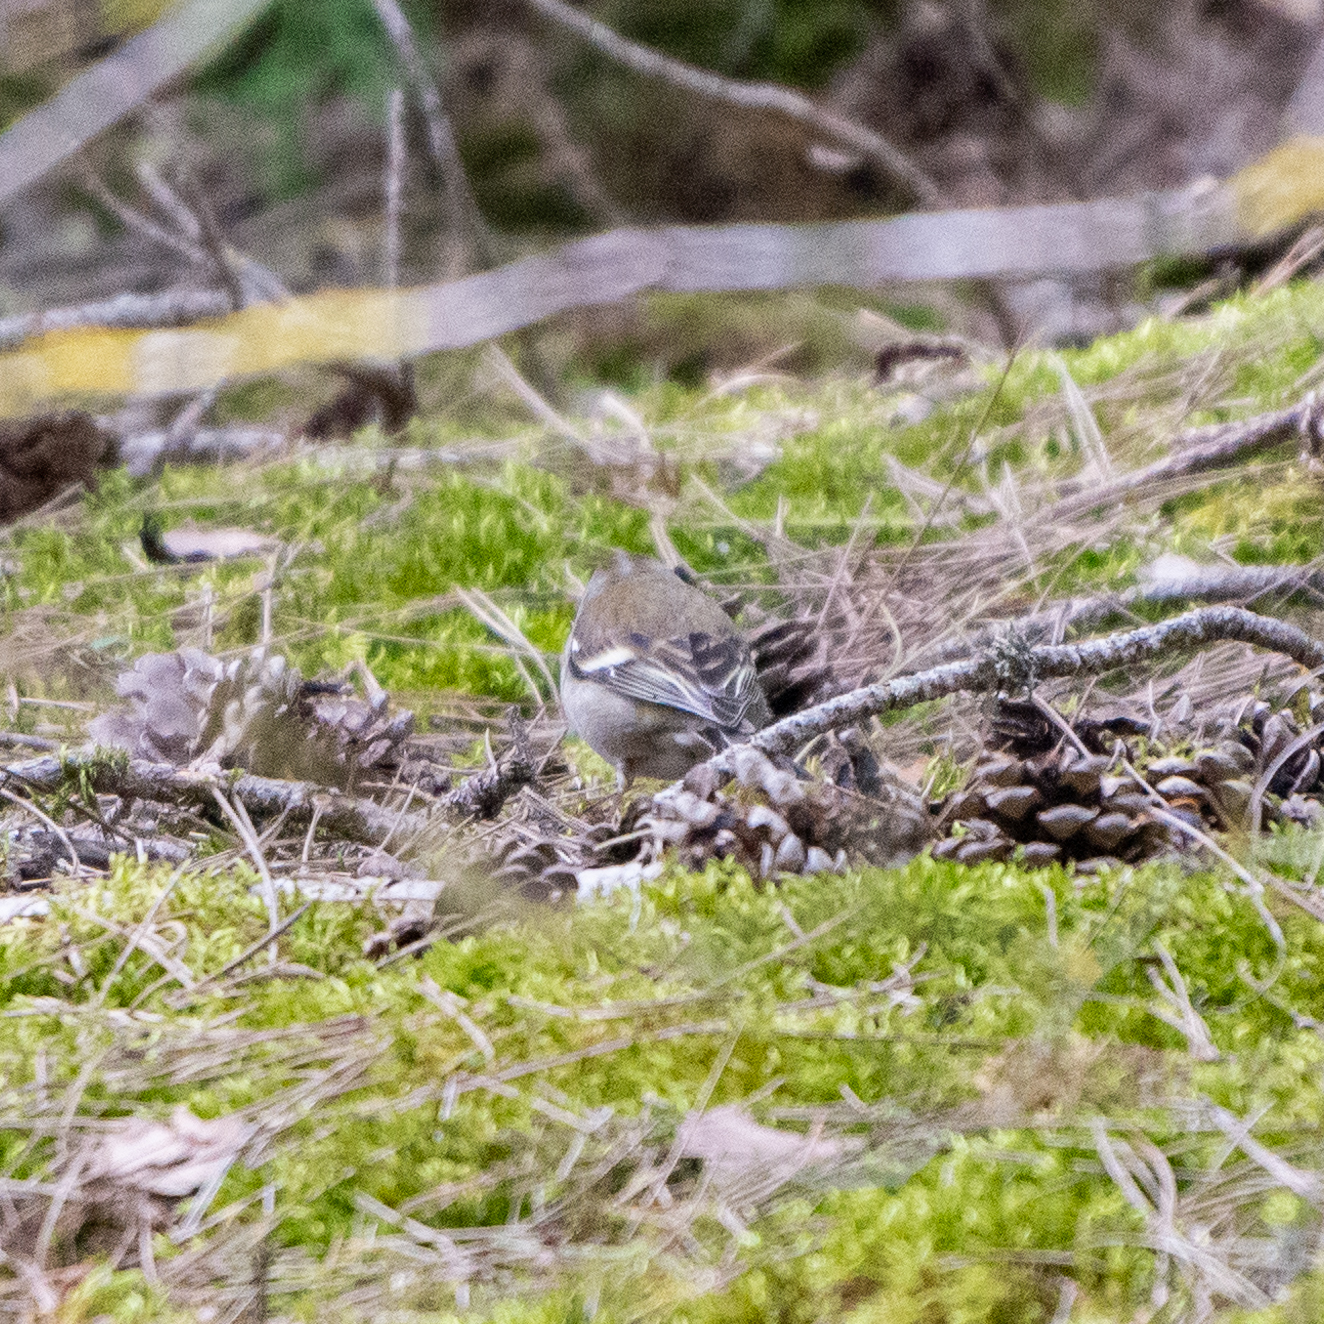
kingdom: Animalia
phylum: Chordata
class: Aves
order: Passeriformes
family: Fringillidae
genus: Fringilla
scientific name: Fringilla coelebs
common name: Common chaffinch
